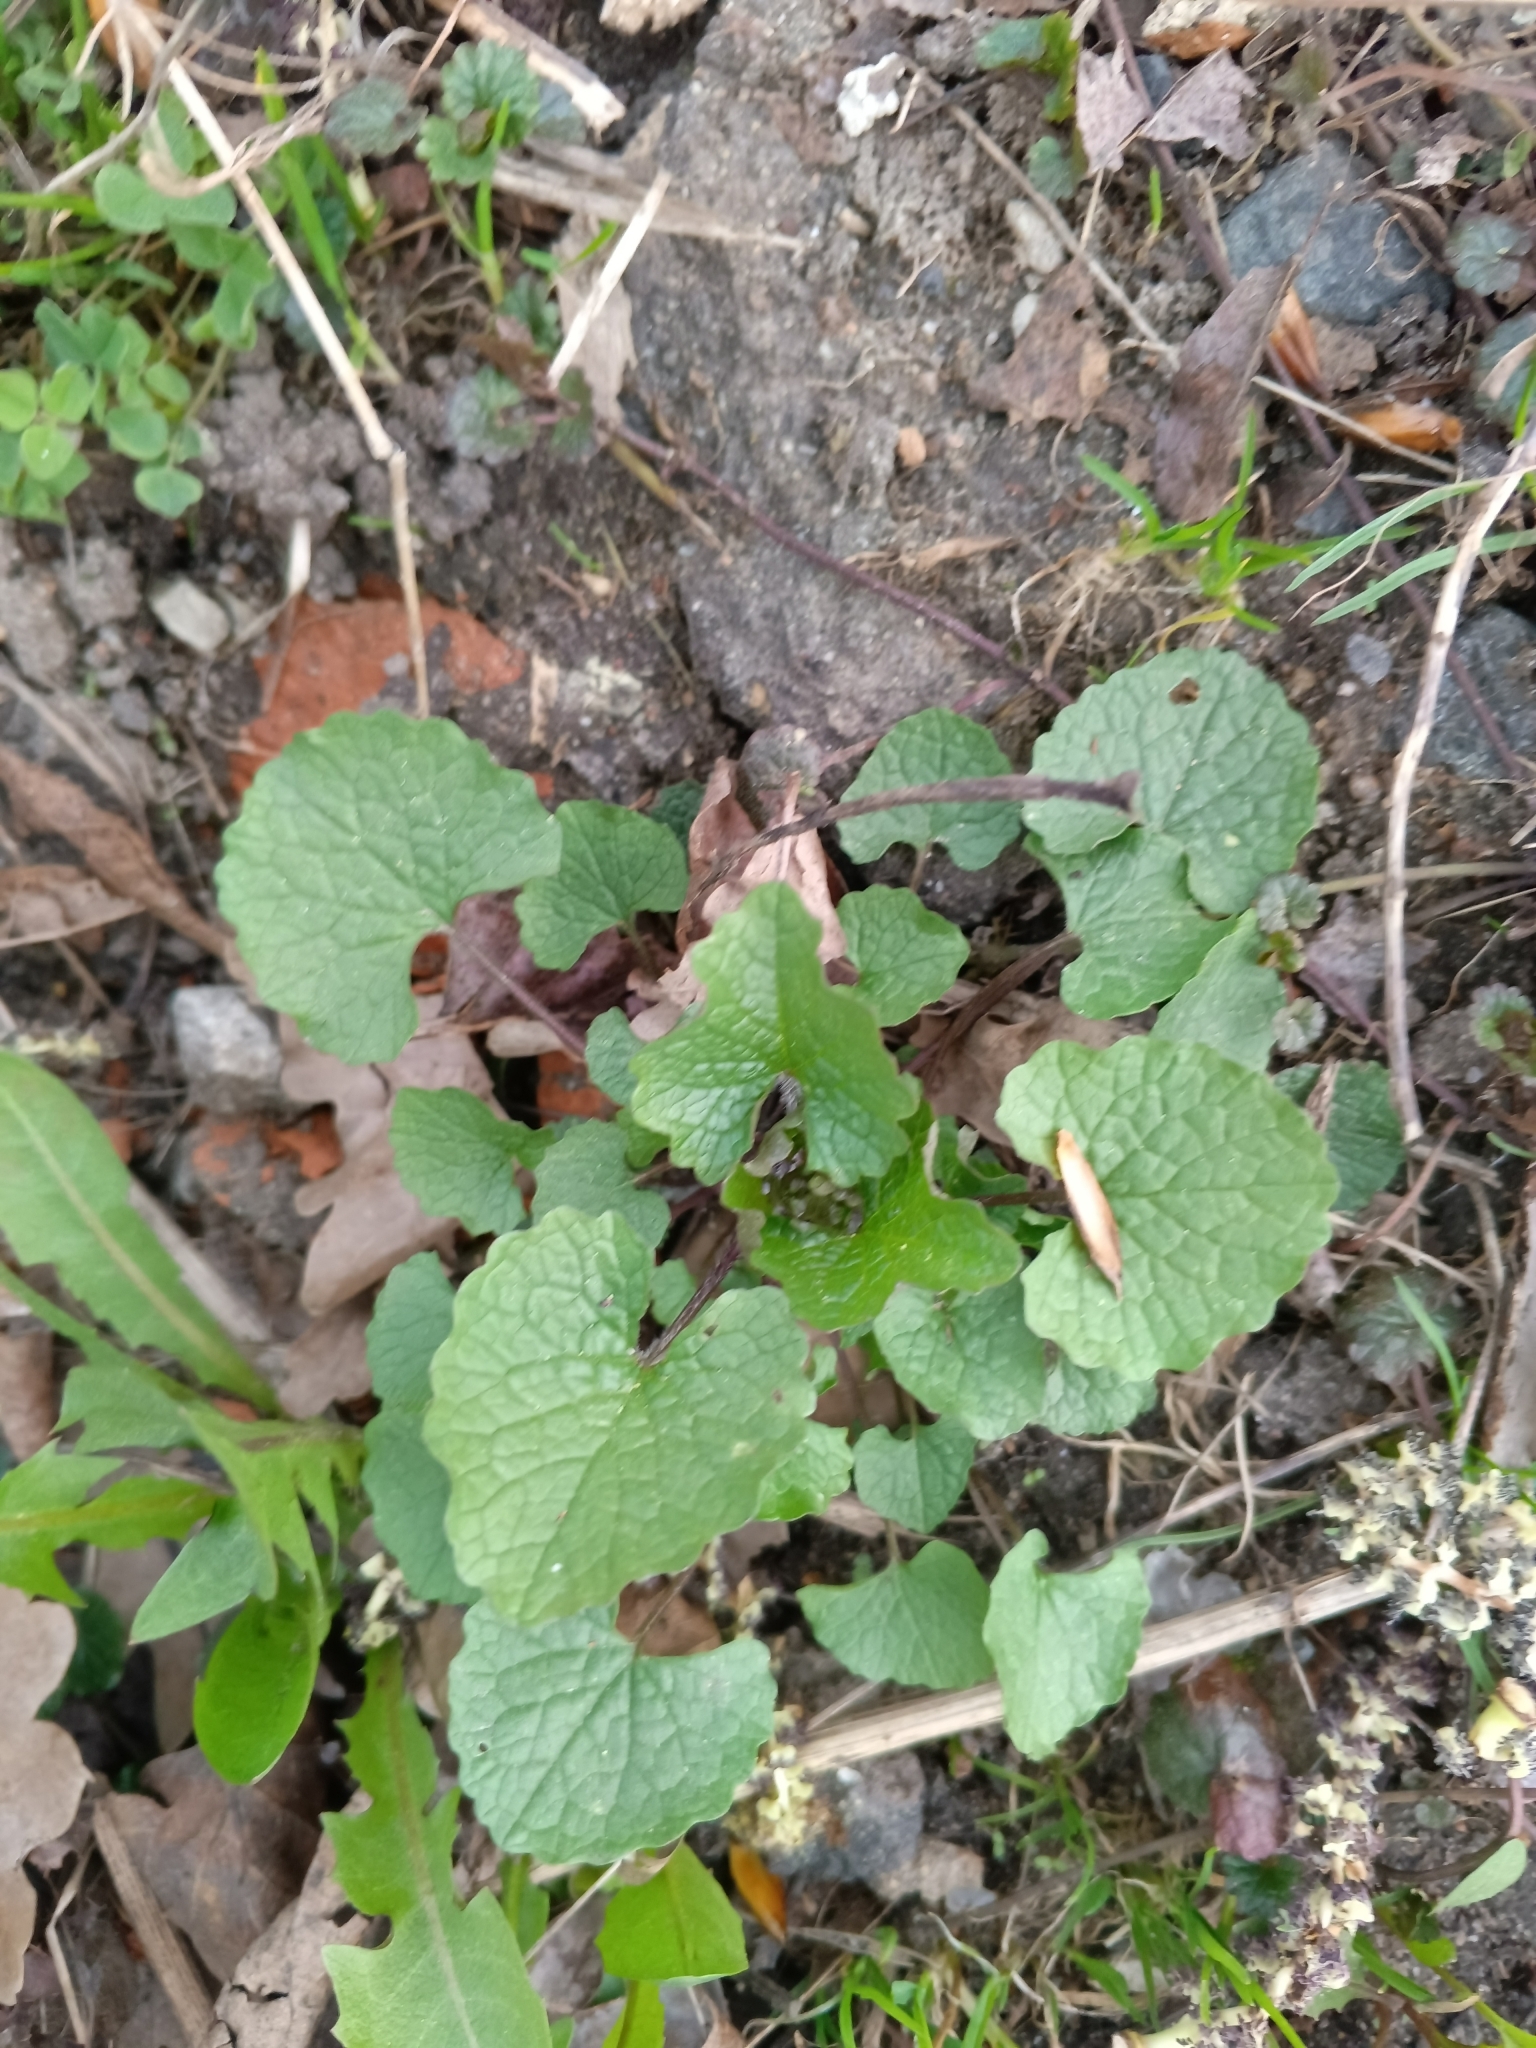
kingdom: Plantae
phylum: Tracheophyta
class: Magnoliopsida
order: Brassicales
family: Brassicaceae
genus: Alliaria
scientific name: Alliaria petiolata
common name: Garlic mustard
